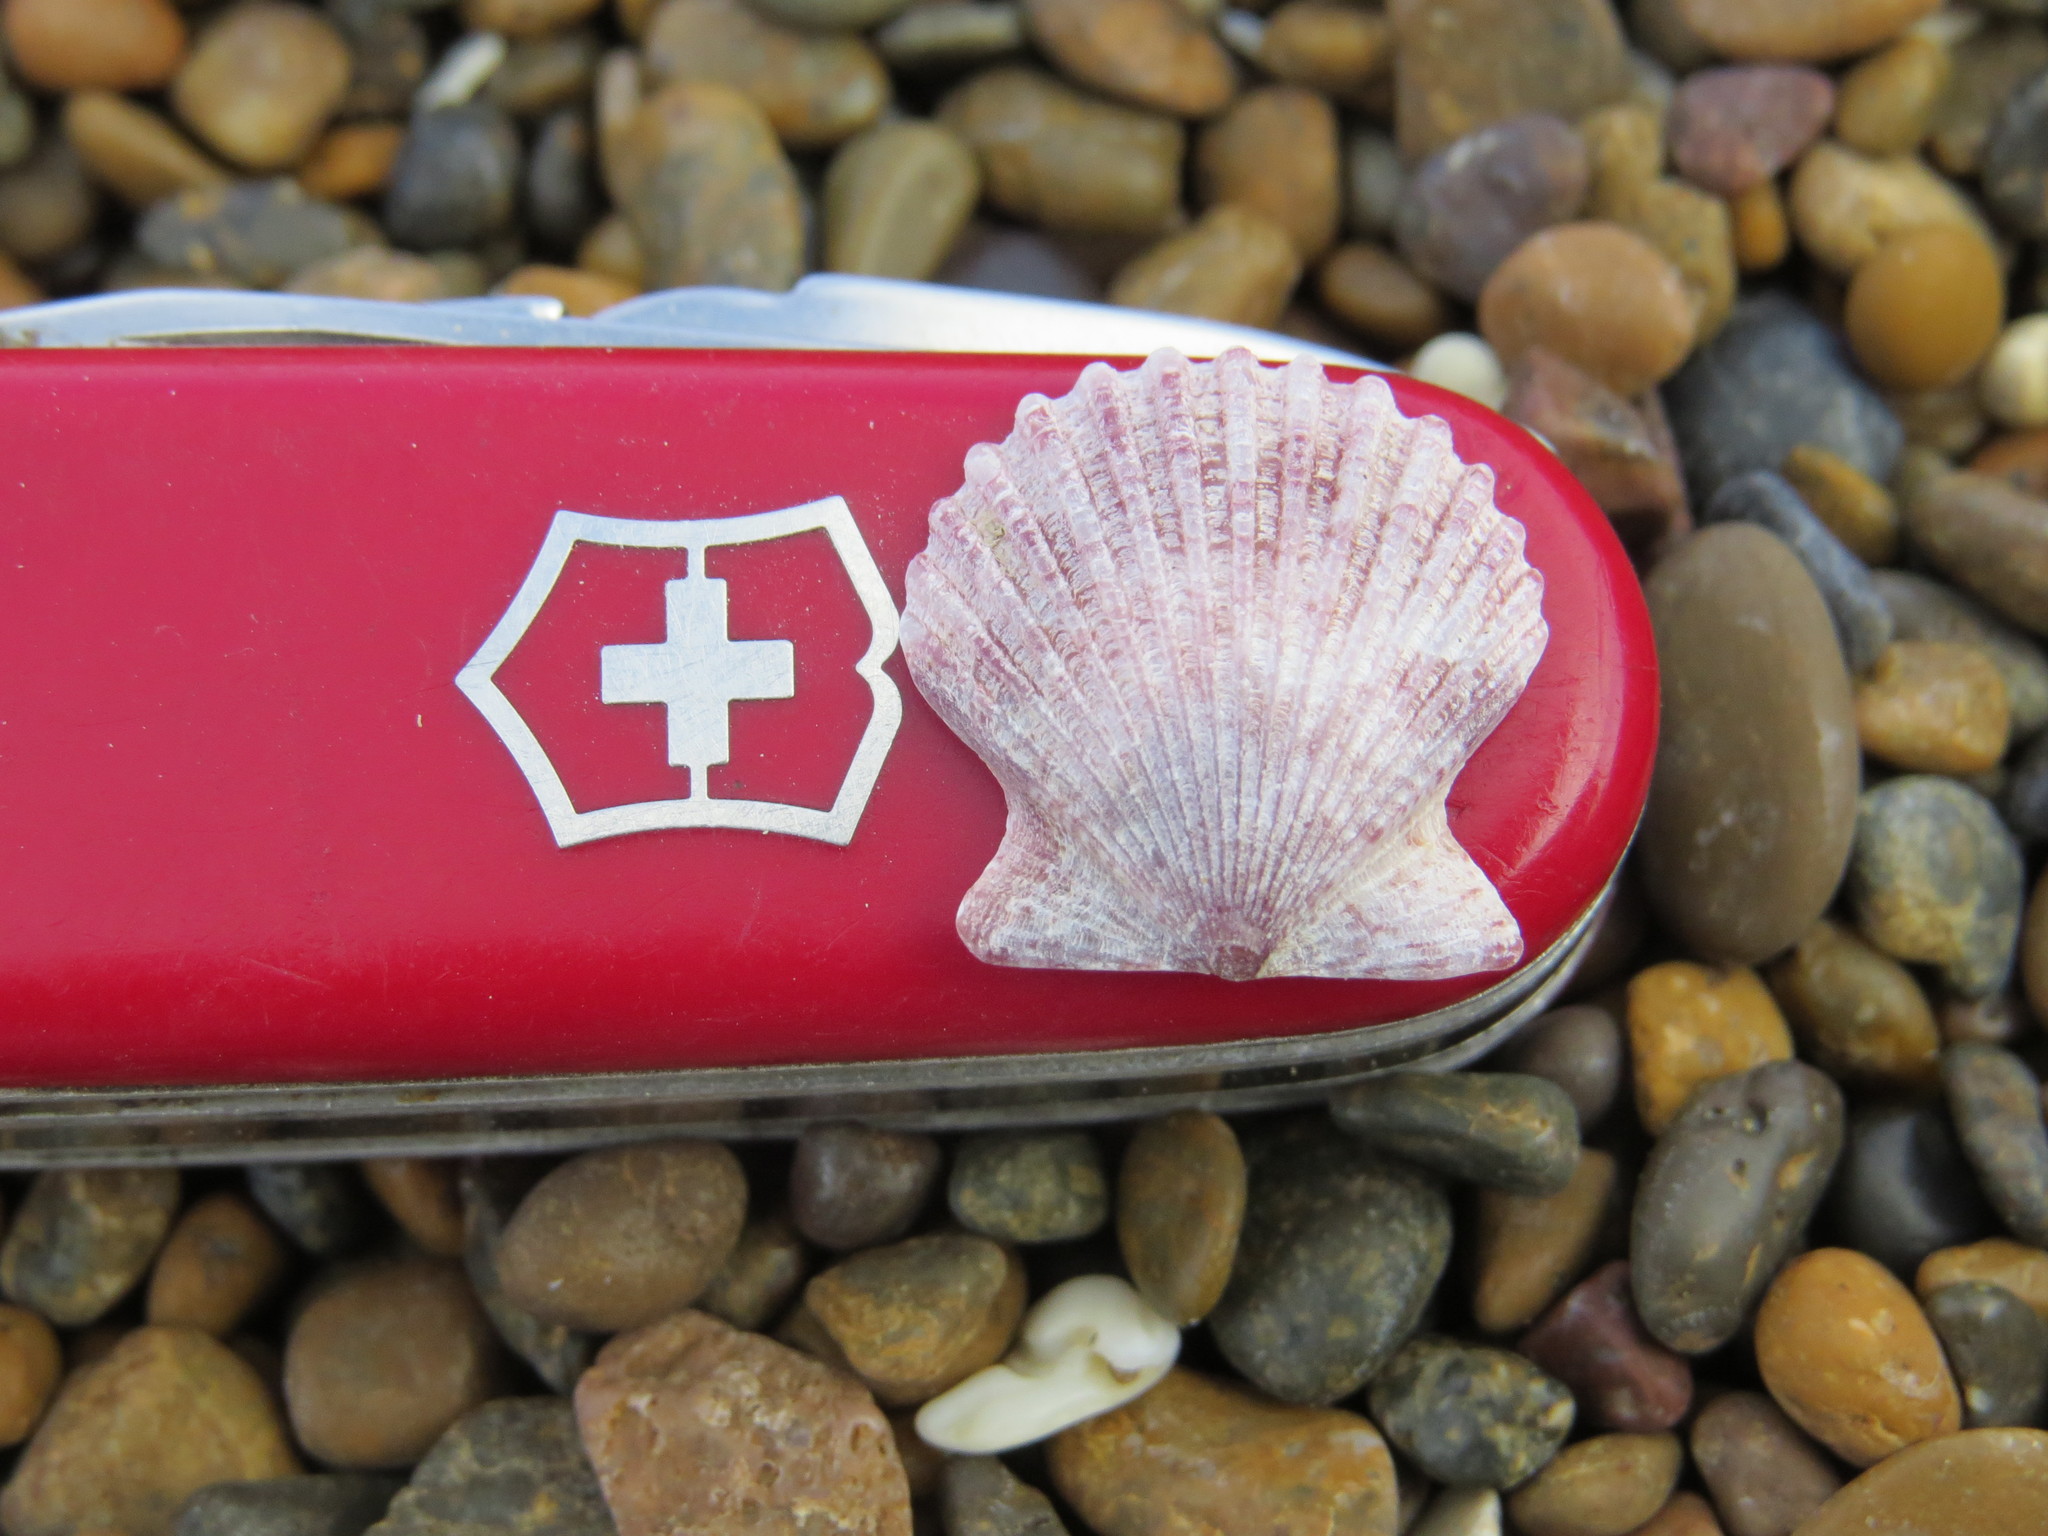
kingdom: Animalia
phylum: Mollusca
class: Bivalvia
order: Pectinida
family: Pectinidae
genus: Aequipecten
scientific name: Aequipecten tehuelchus
